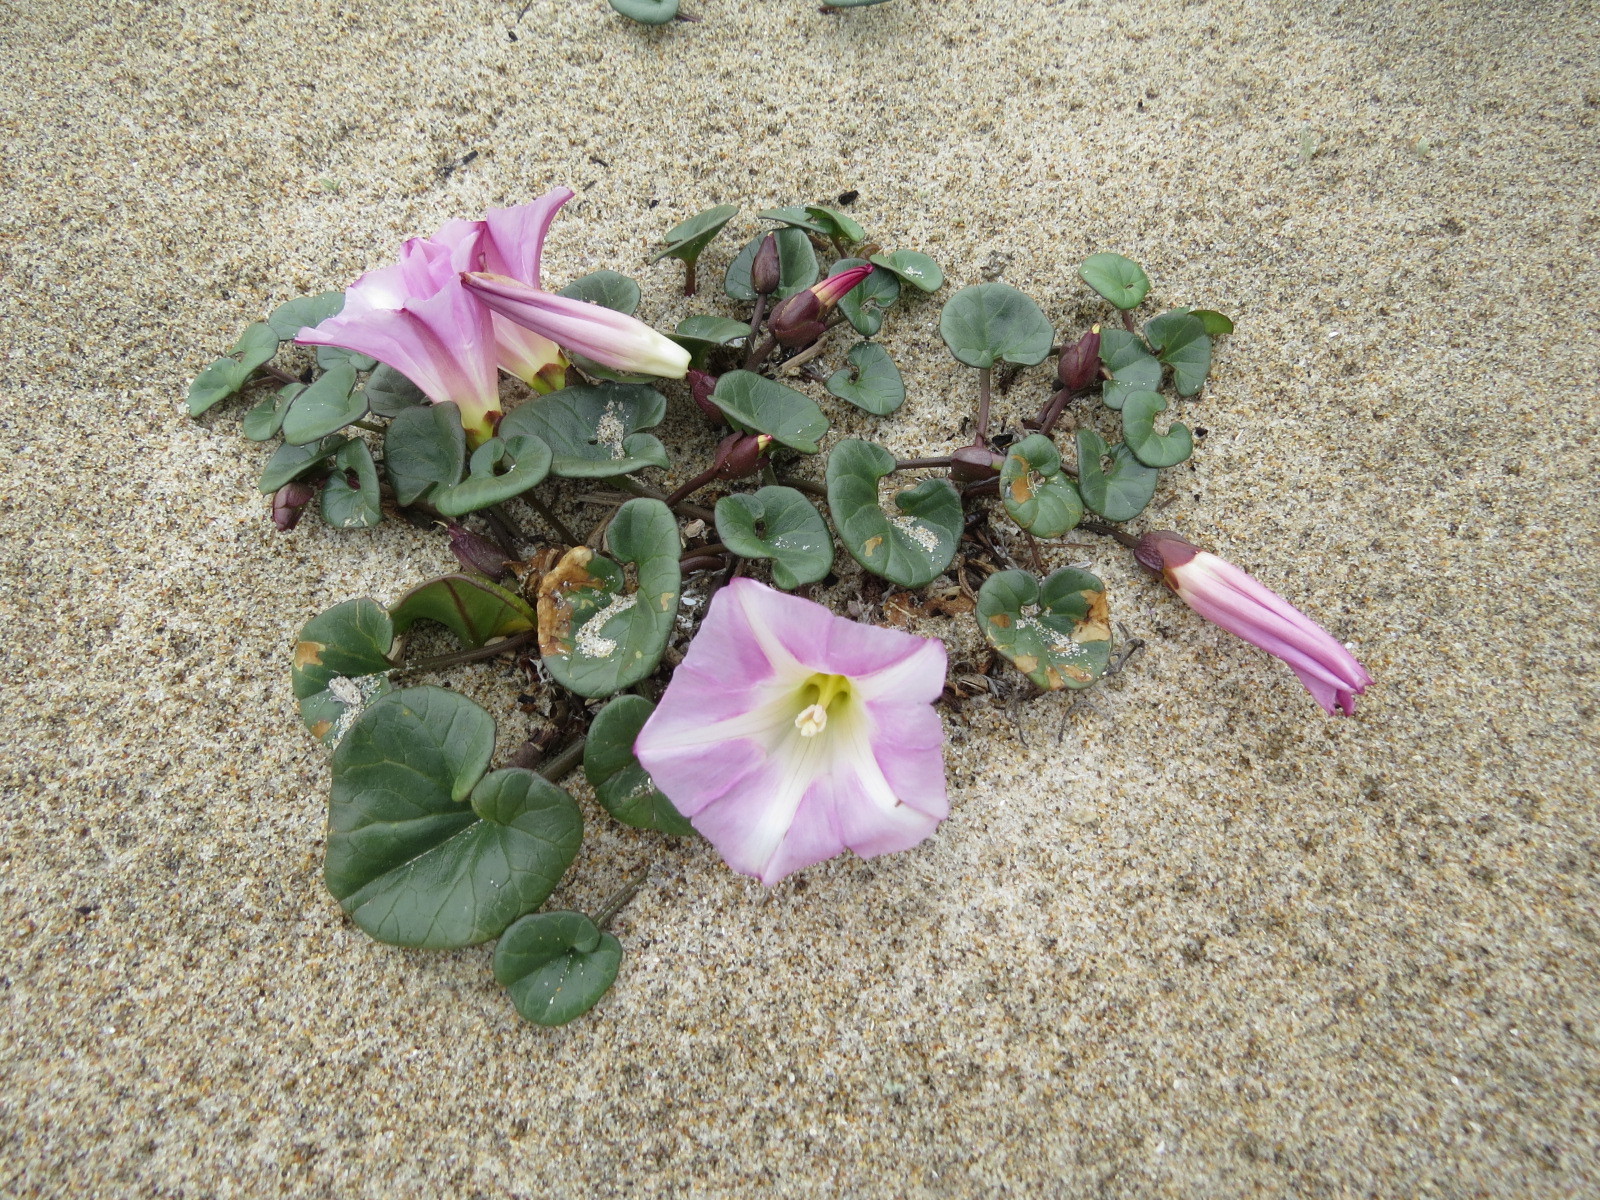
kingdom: Plantae
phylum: Tracheophyta
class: Magnoliopsida
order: Solanales
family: Convolvulaceae
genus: Calystegia
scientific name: Calystegia soldanella
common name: Sea bindweed
